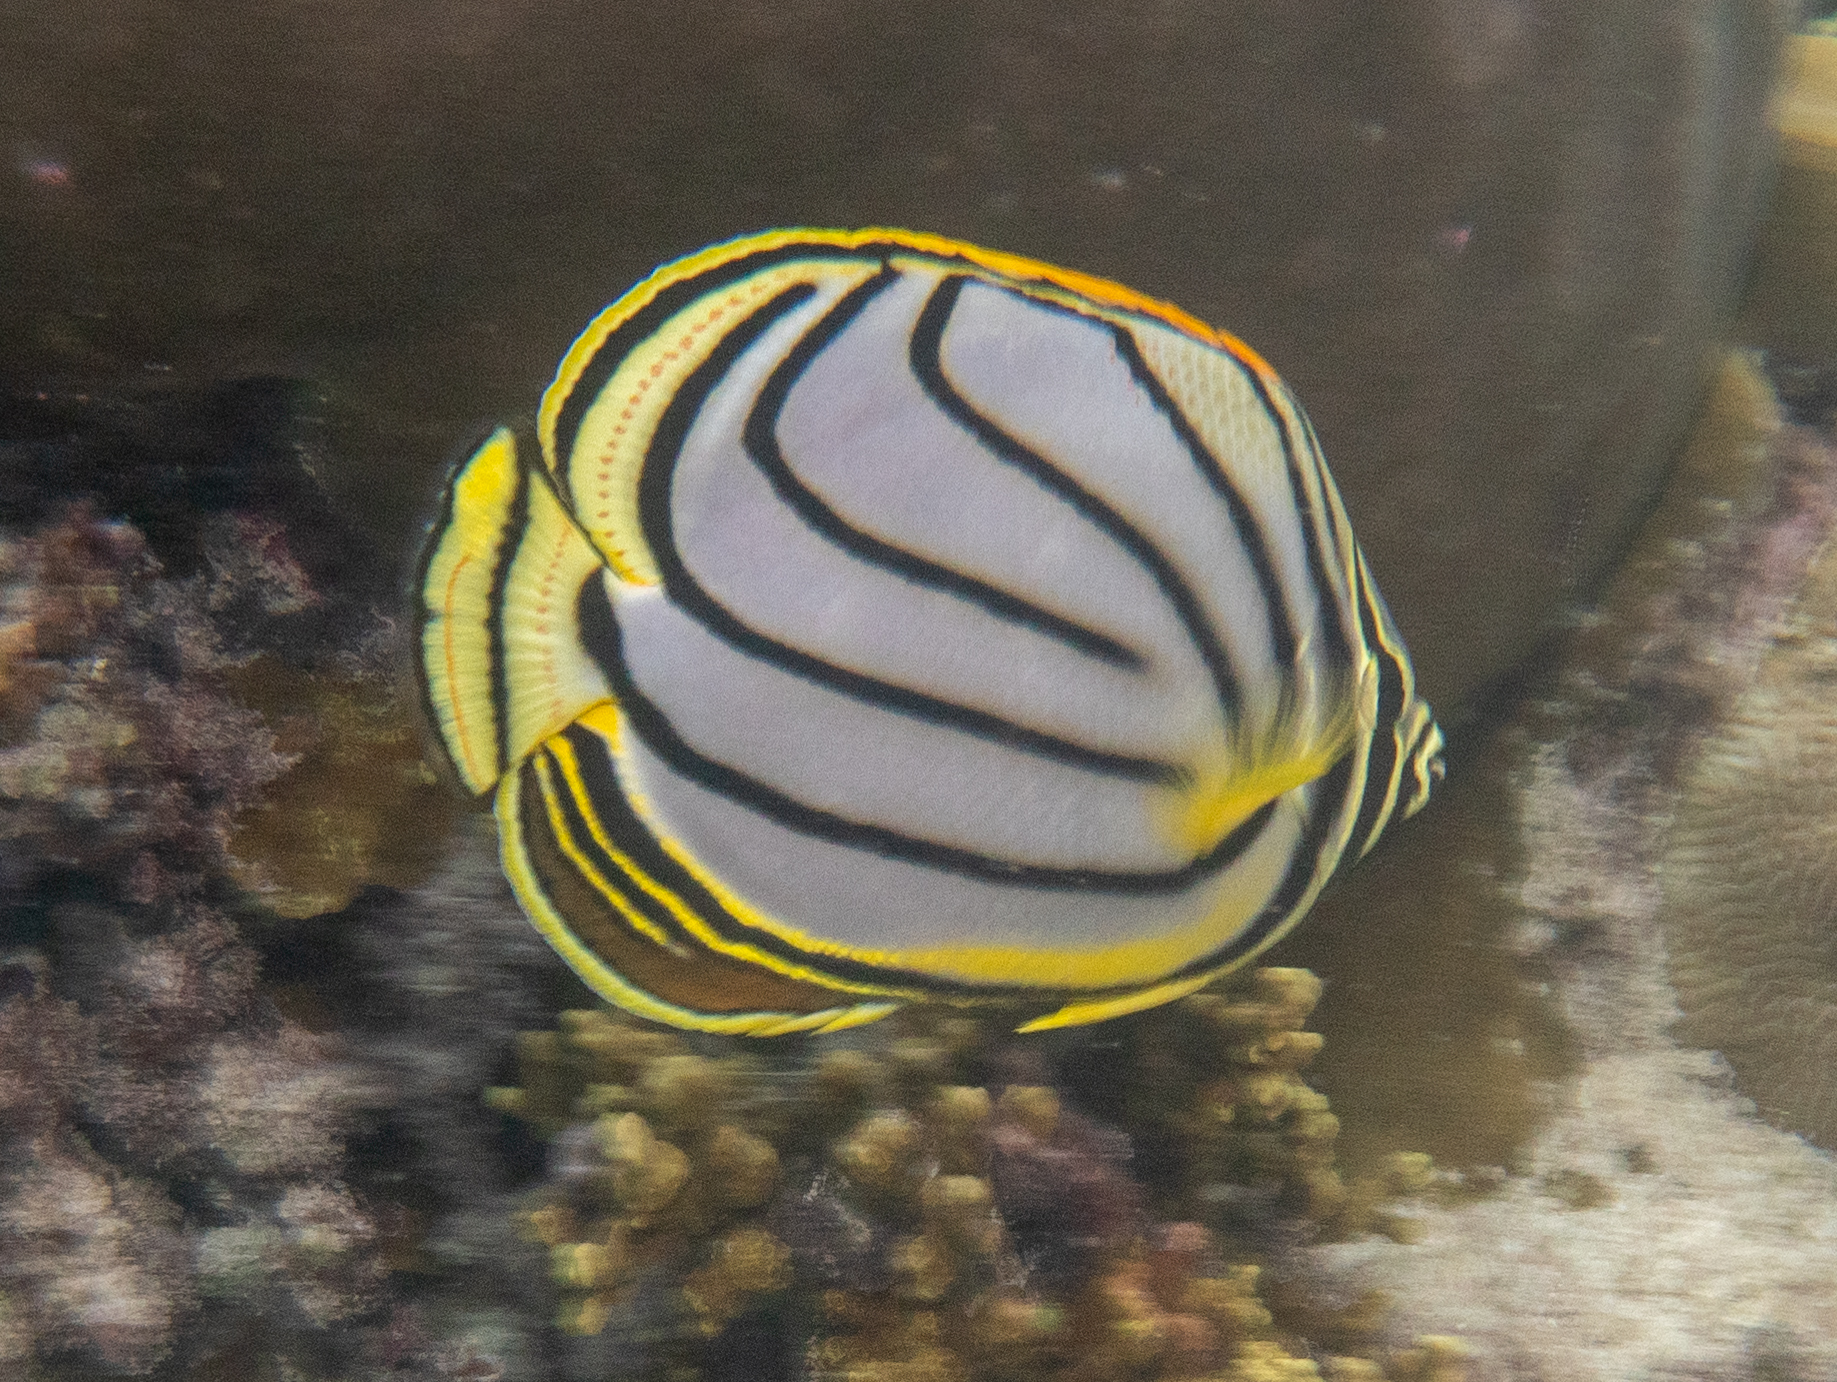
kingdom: Animalia
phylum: Chordata
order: Perciformes
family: Chaetodontidae
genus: Chaetodon
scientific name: Chaetodon meyeri
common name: Meyer's butterflyfish
